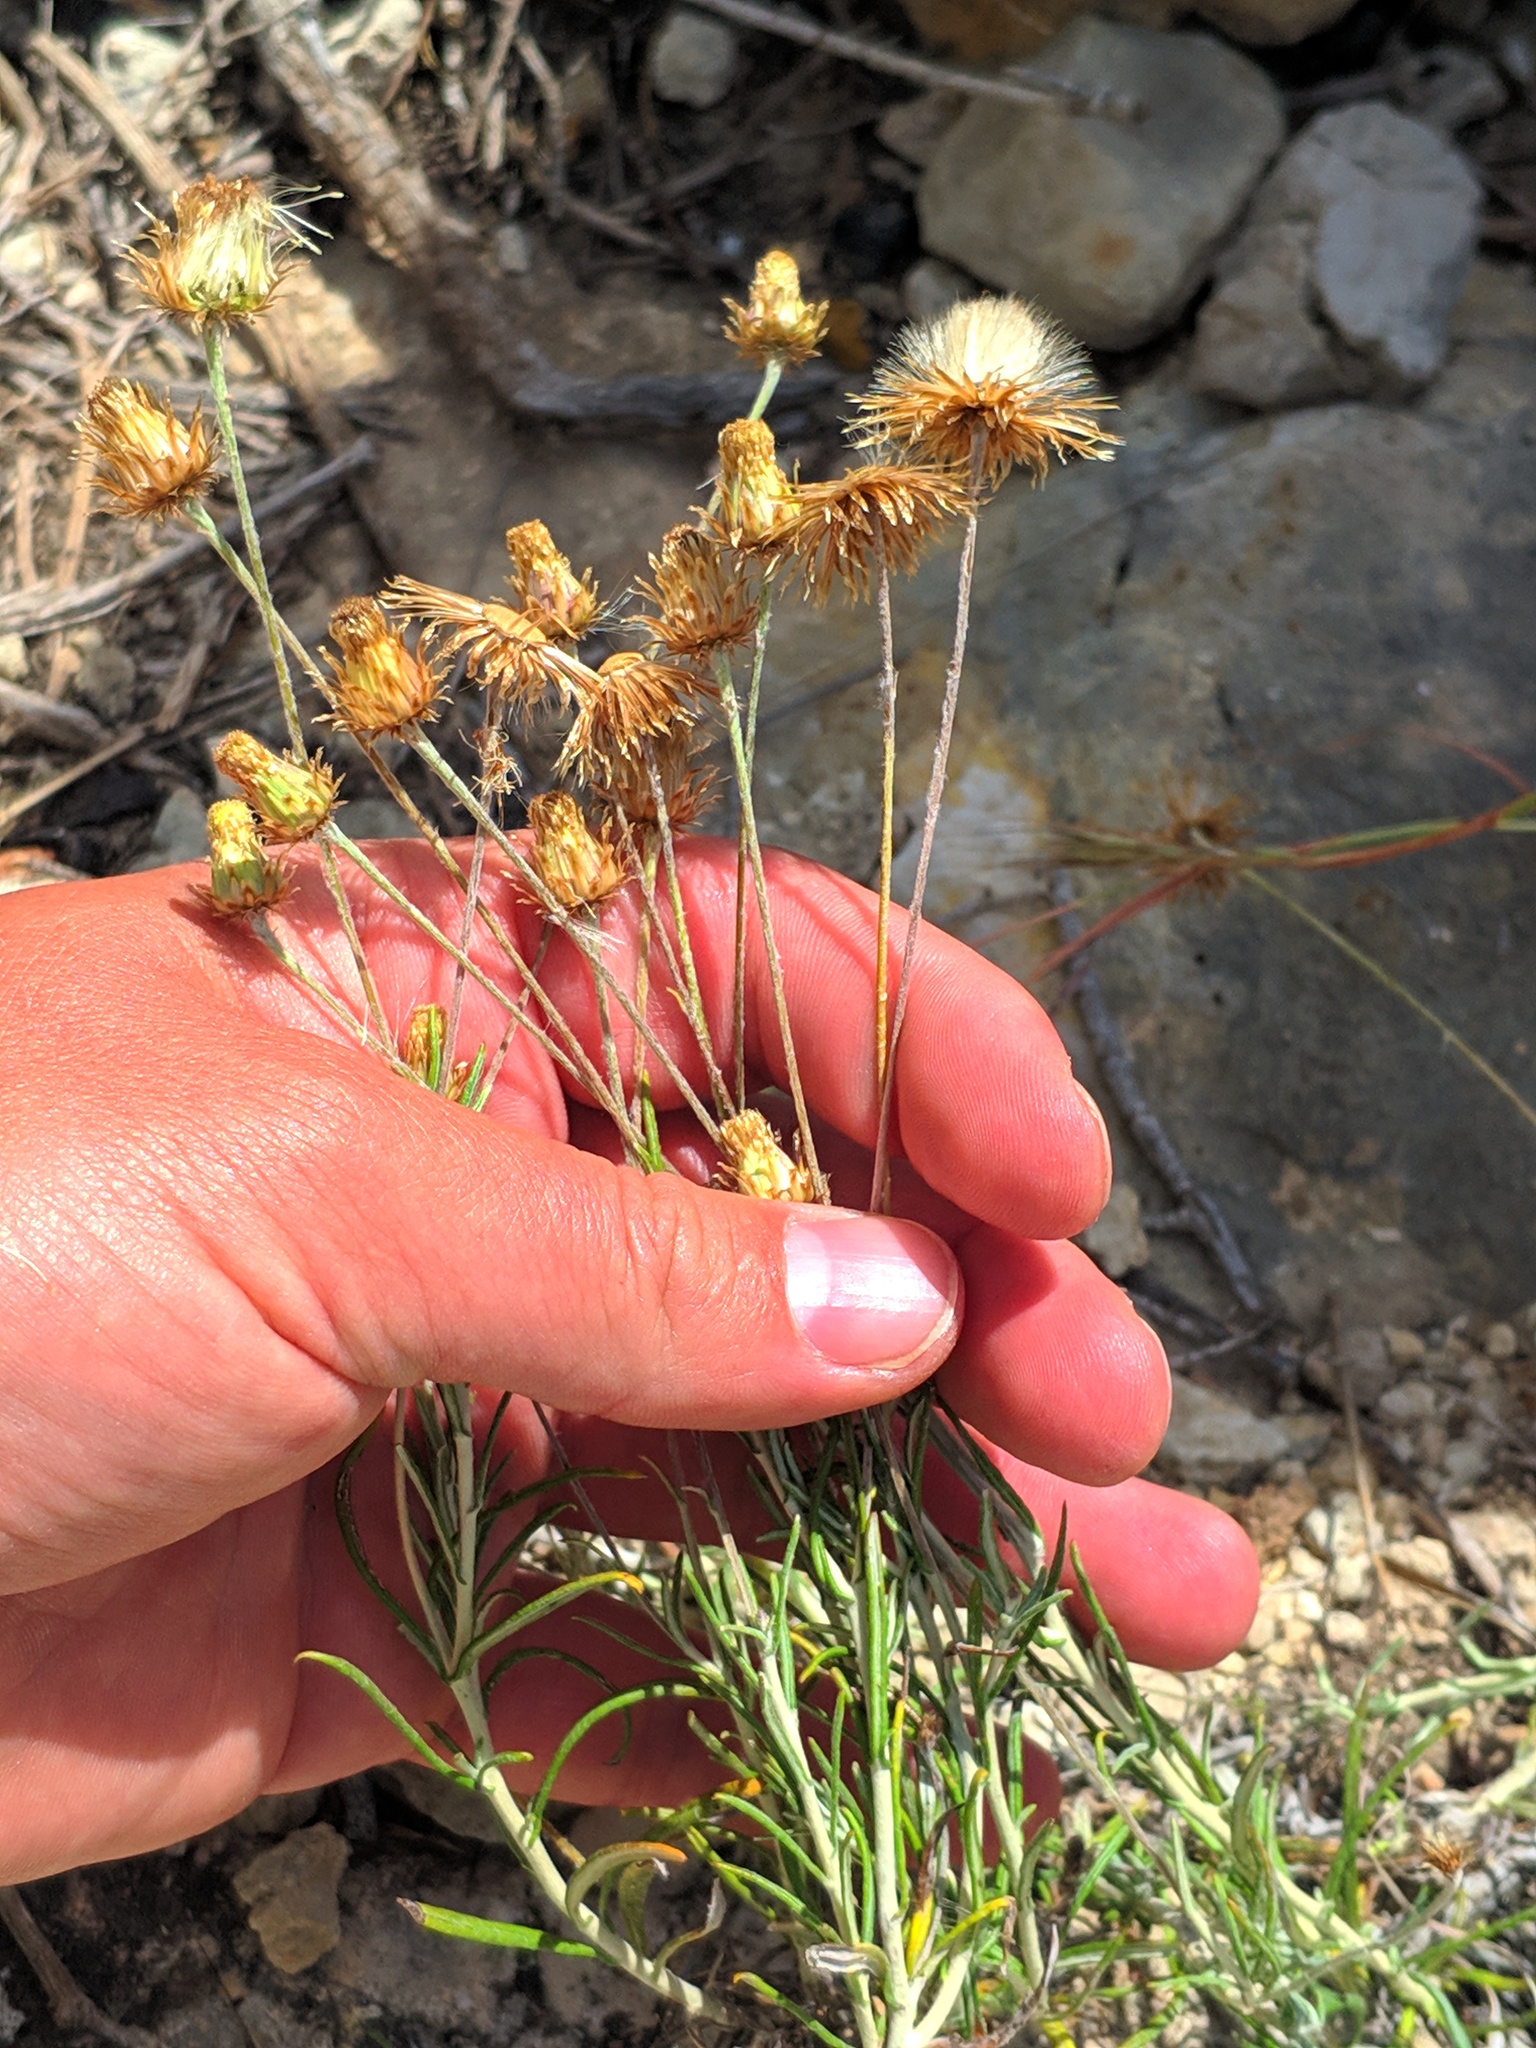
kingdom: Plantae
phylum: Tracheophyta
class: Magnoliopsida
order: Asterales
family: Asteraceae
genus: Phagnalon
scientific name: Phagnalon saxatile
